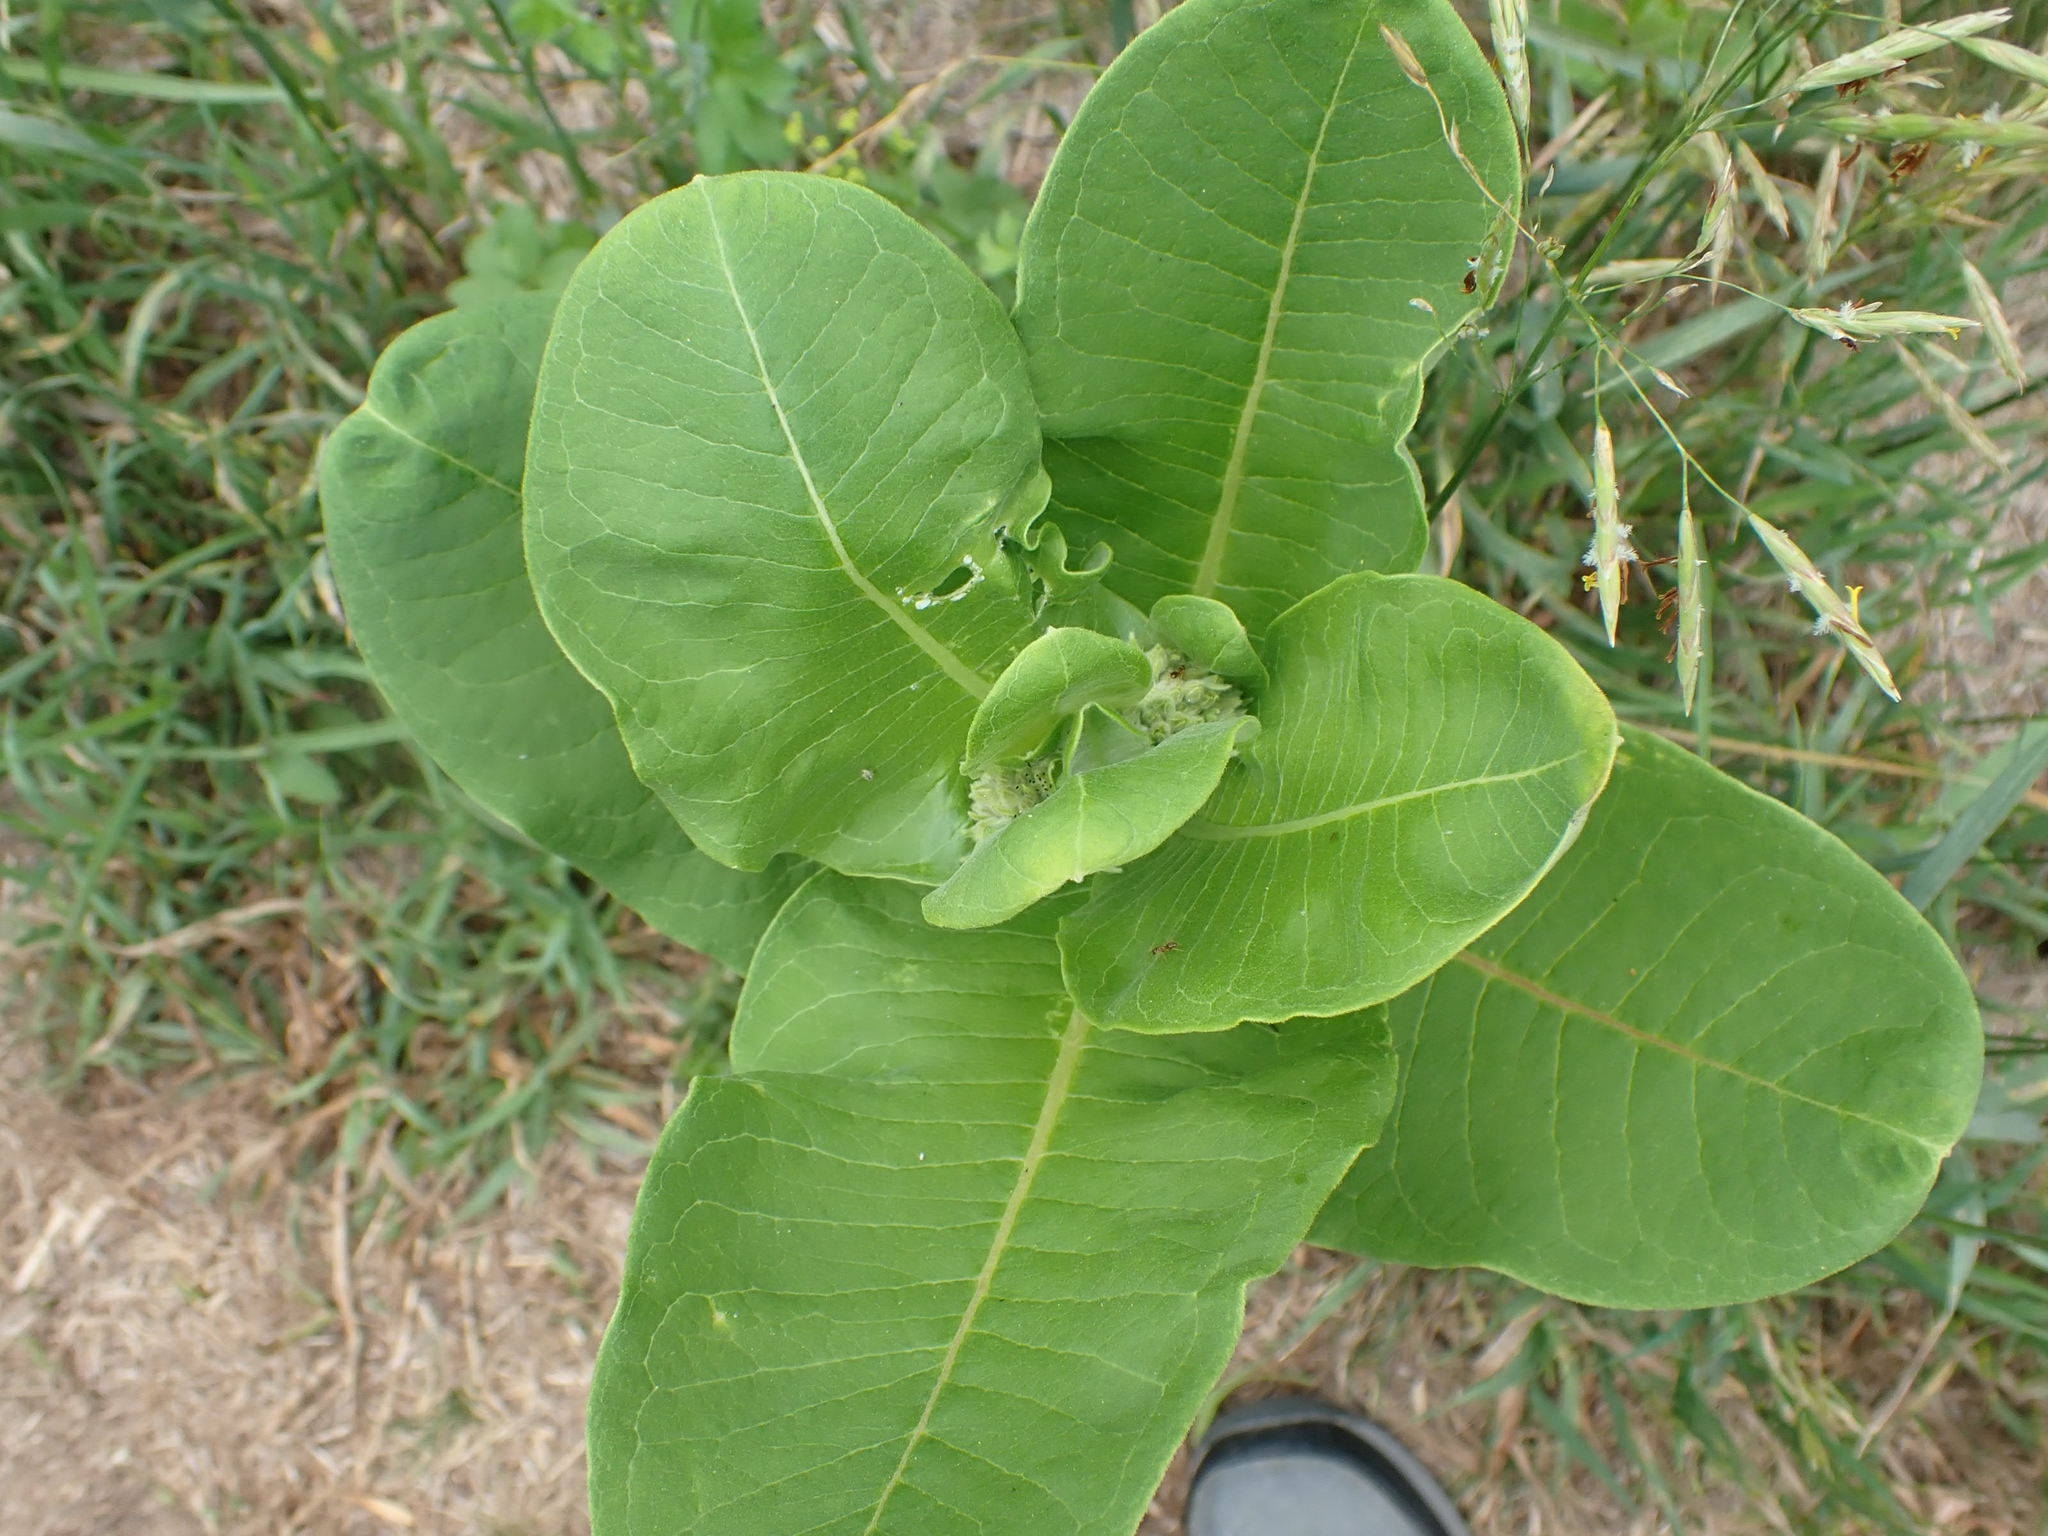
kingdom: Animalia
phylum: Arthropoda
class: Insecta
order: Lepidoptera
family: Nymphalidae
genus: Danaus
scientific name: Danaus plexippus
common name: Monarch
